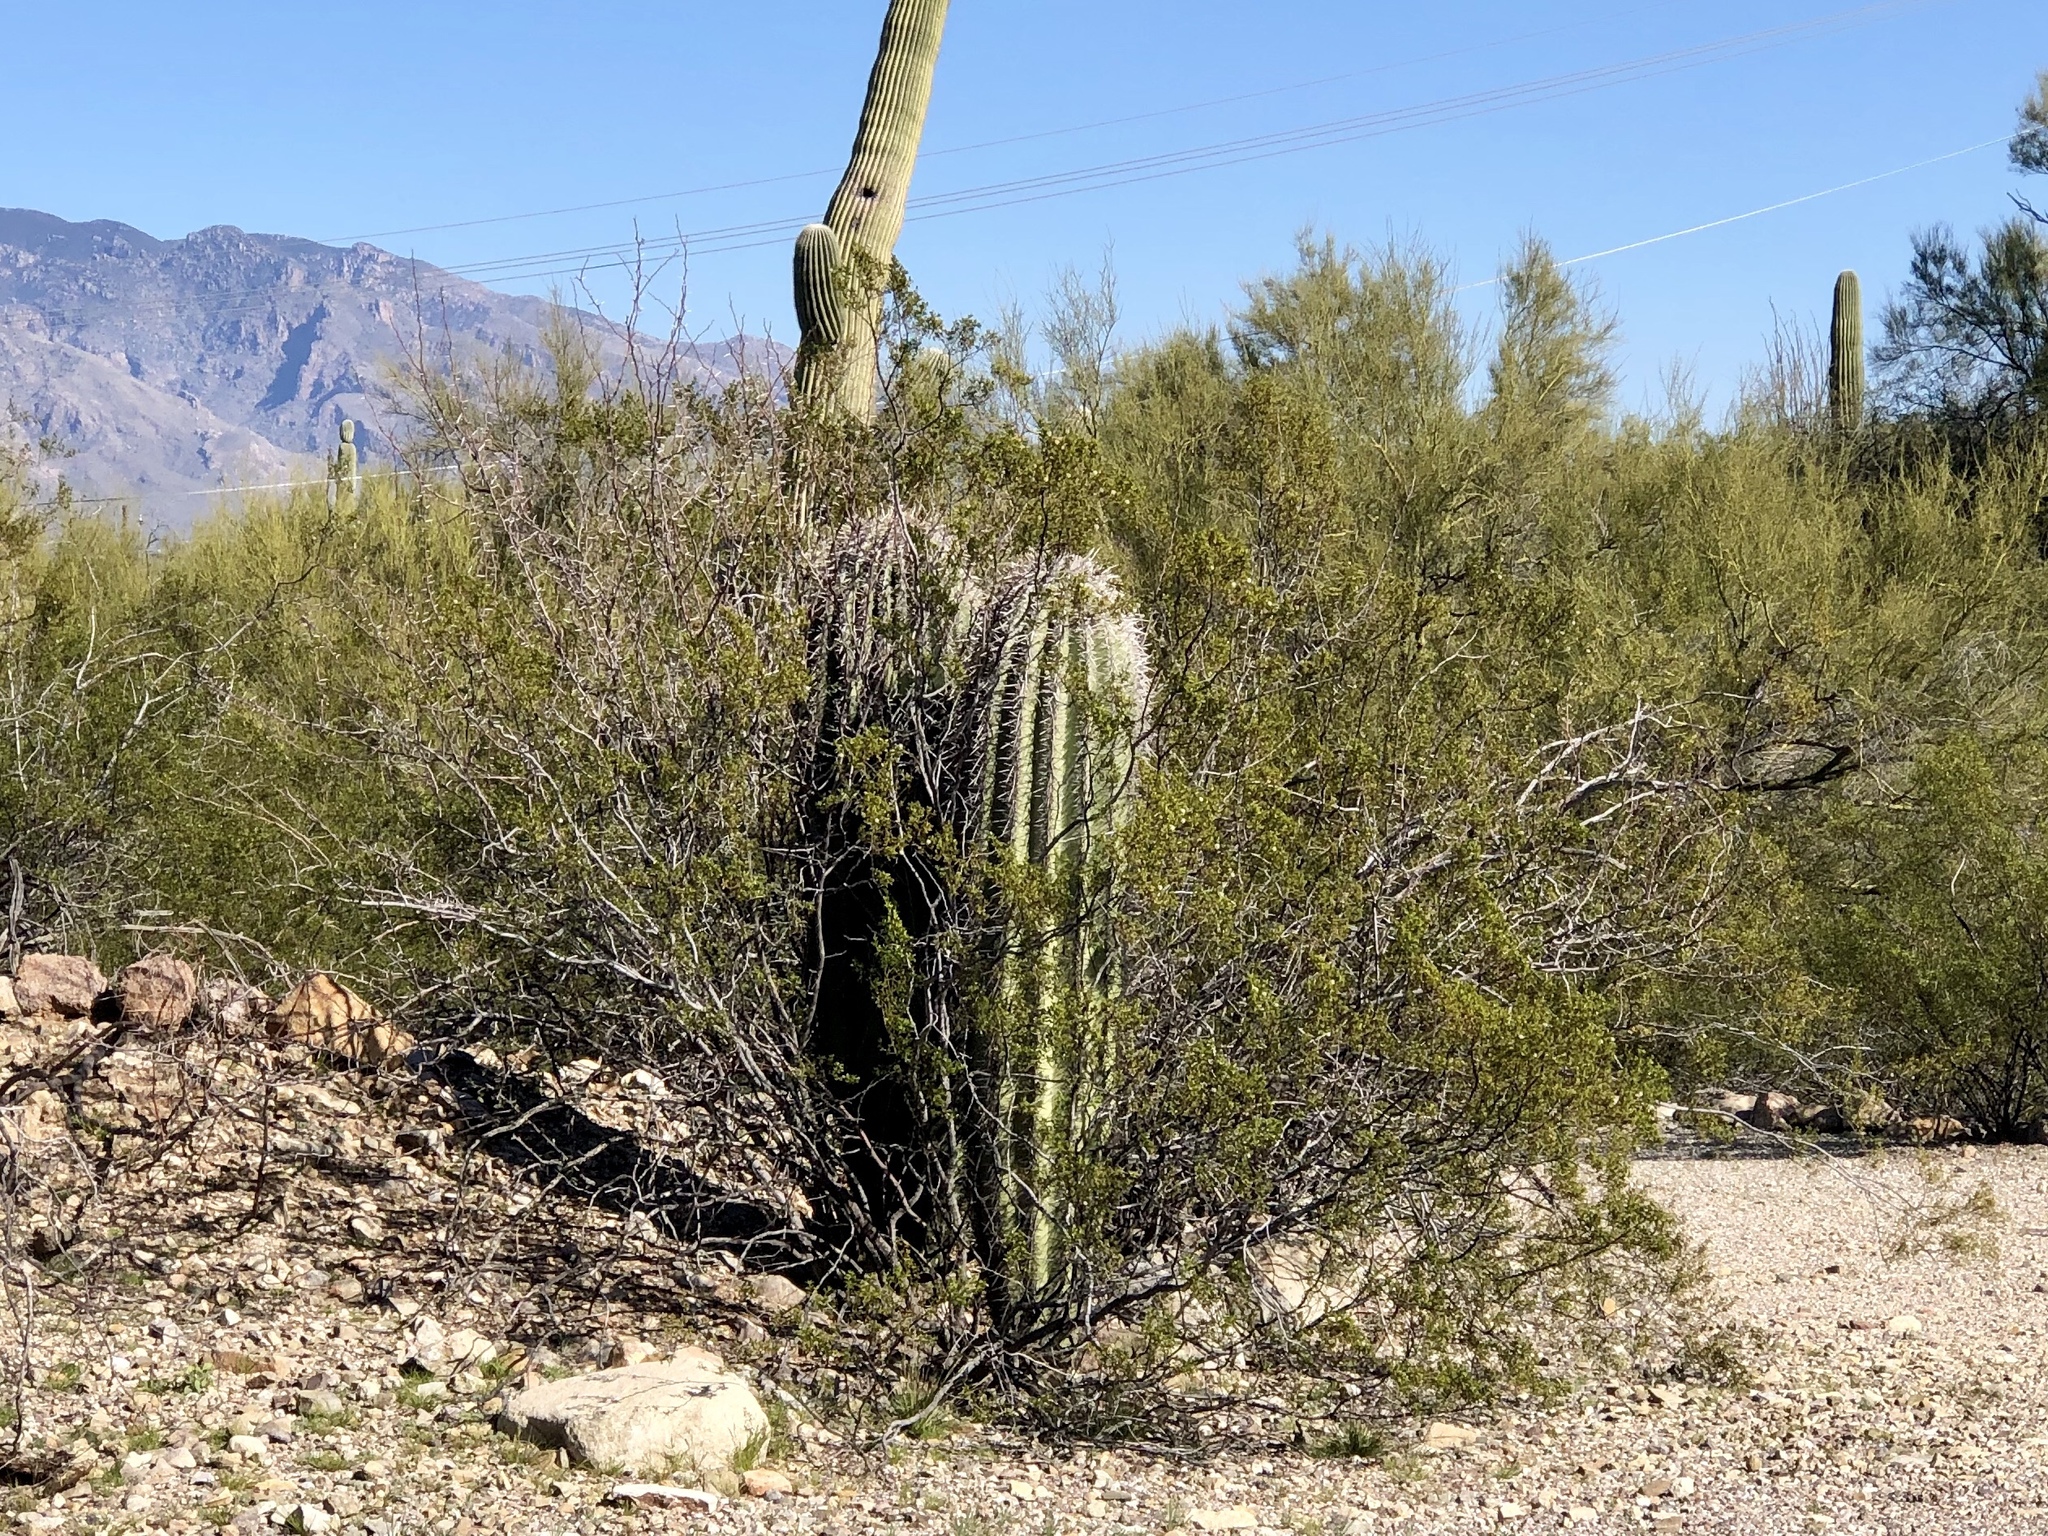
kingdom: Plantae
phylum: Tracheophyta
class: Magnoliopsida
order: Zygophyllales
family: Zygophyllaceae
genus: Larrea
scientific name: Larrea tridentata
